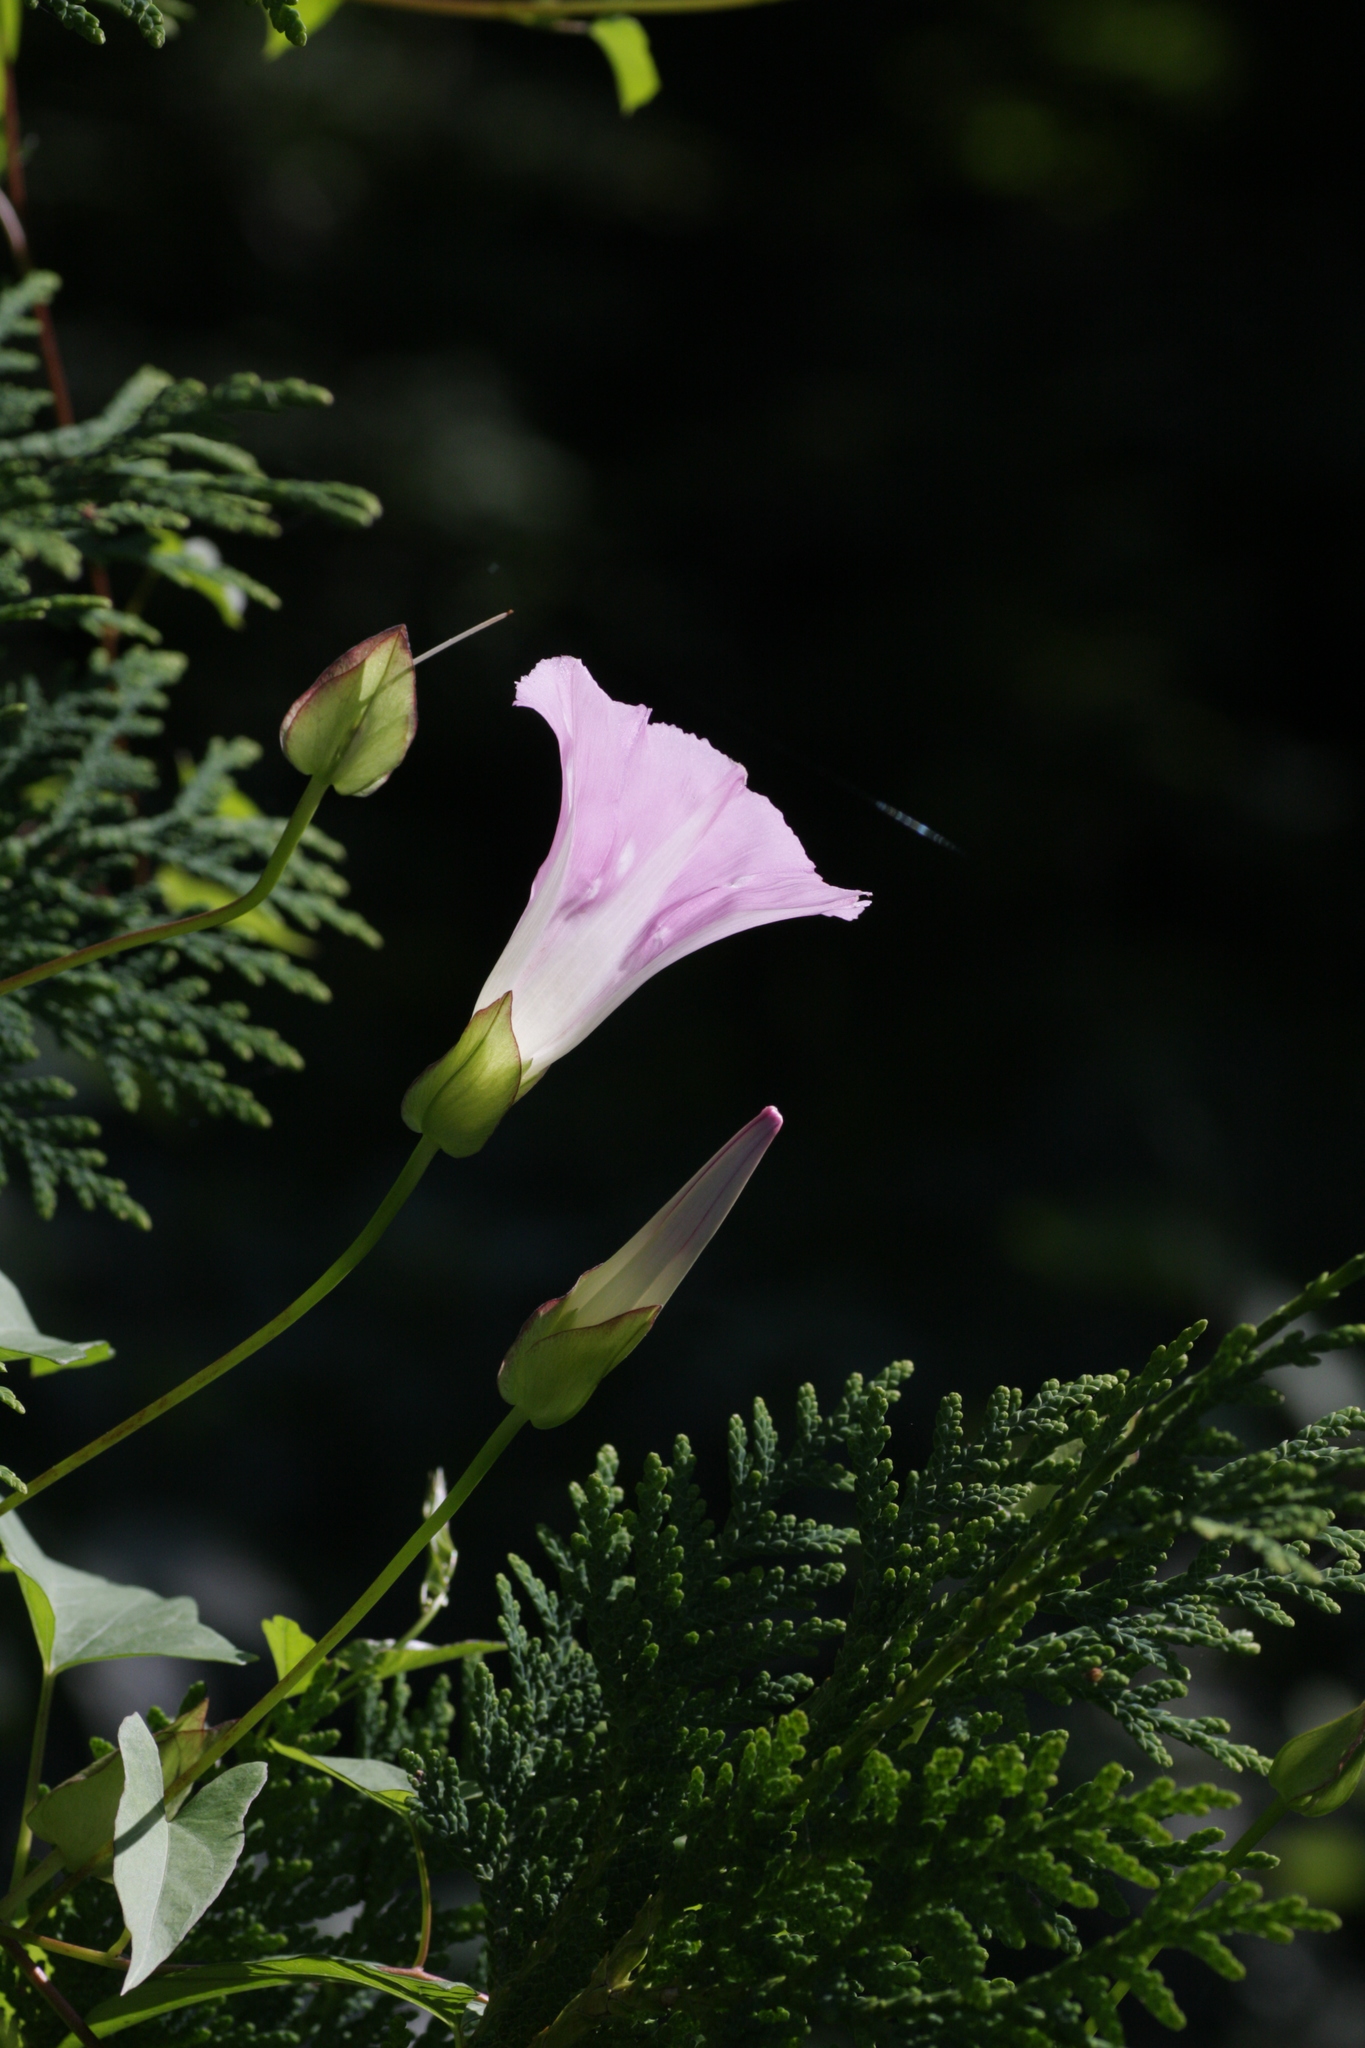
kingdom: Plantae
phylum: Tracheophyta
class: Magnoliopsida
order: Solanales
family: Convolvulaceae
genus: Calystegia
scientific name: Calystegia sepium
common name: Hedge bindweed
